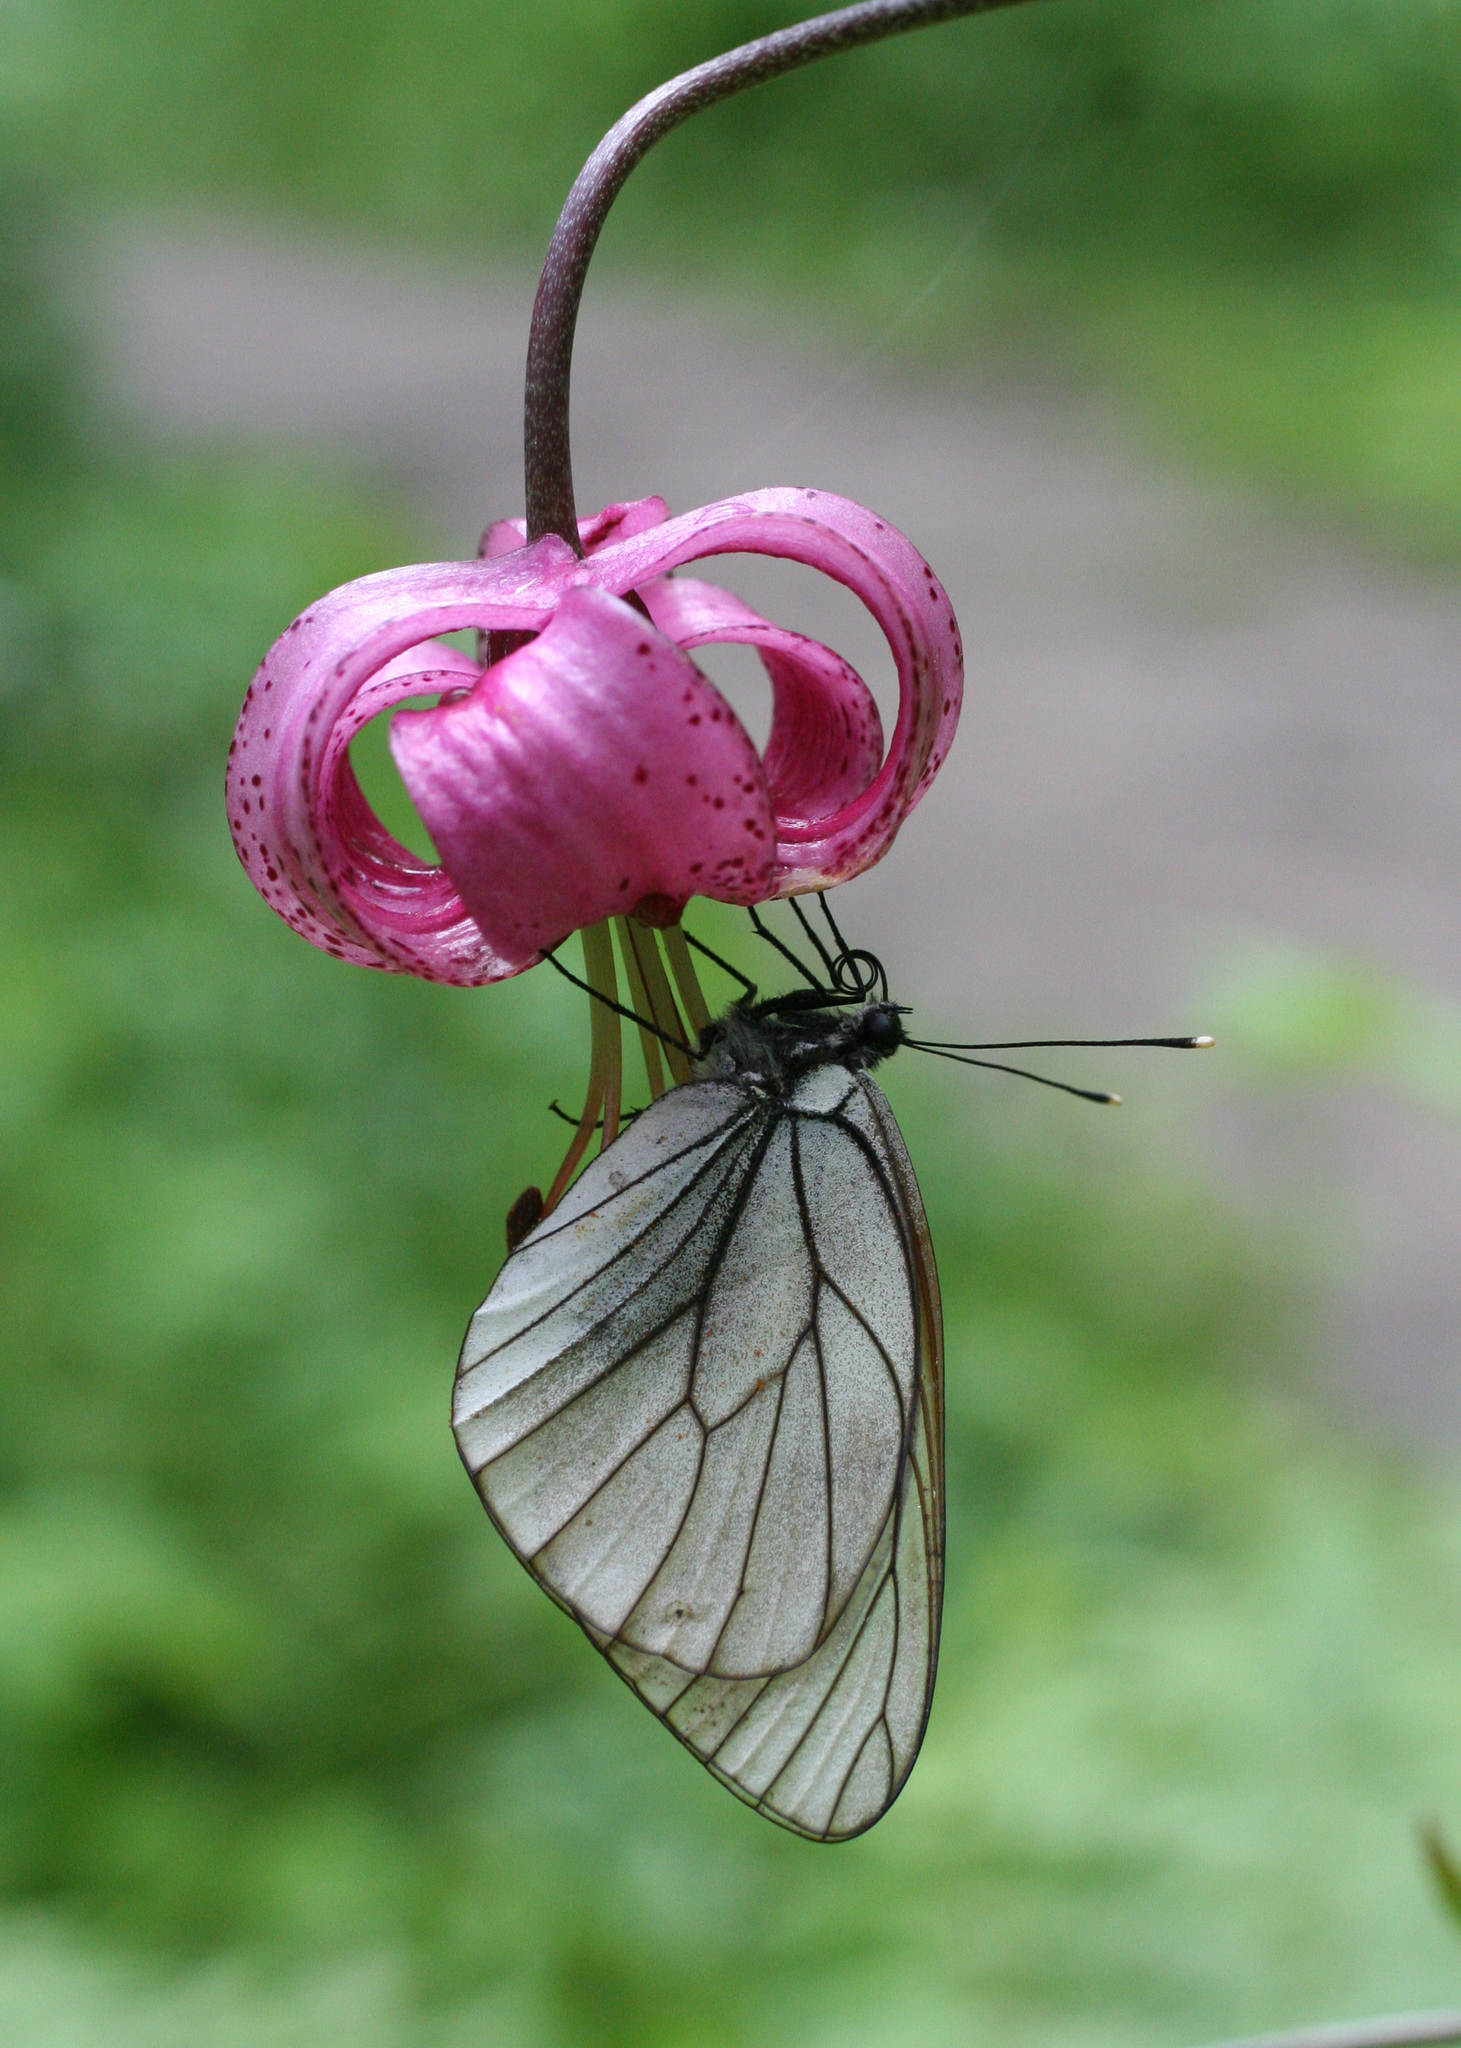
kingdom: Plantae
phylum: Tracheophyta
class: Liliopsida
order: Liliales
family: Liliaceae
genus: Lilium
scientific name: Lilium martagon
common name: Martagon lily
